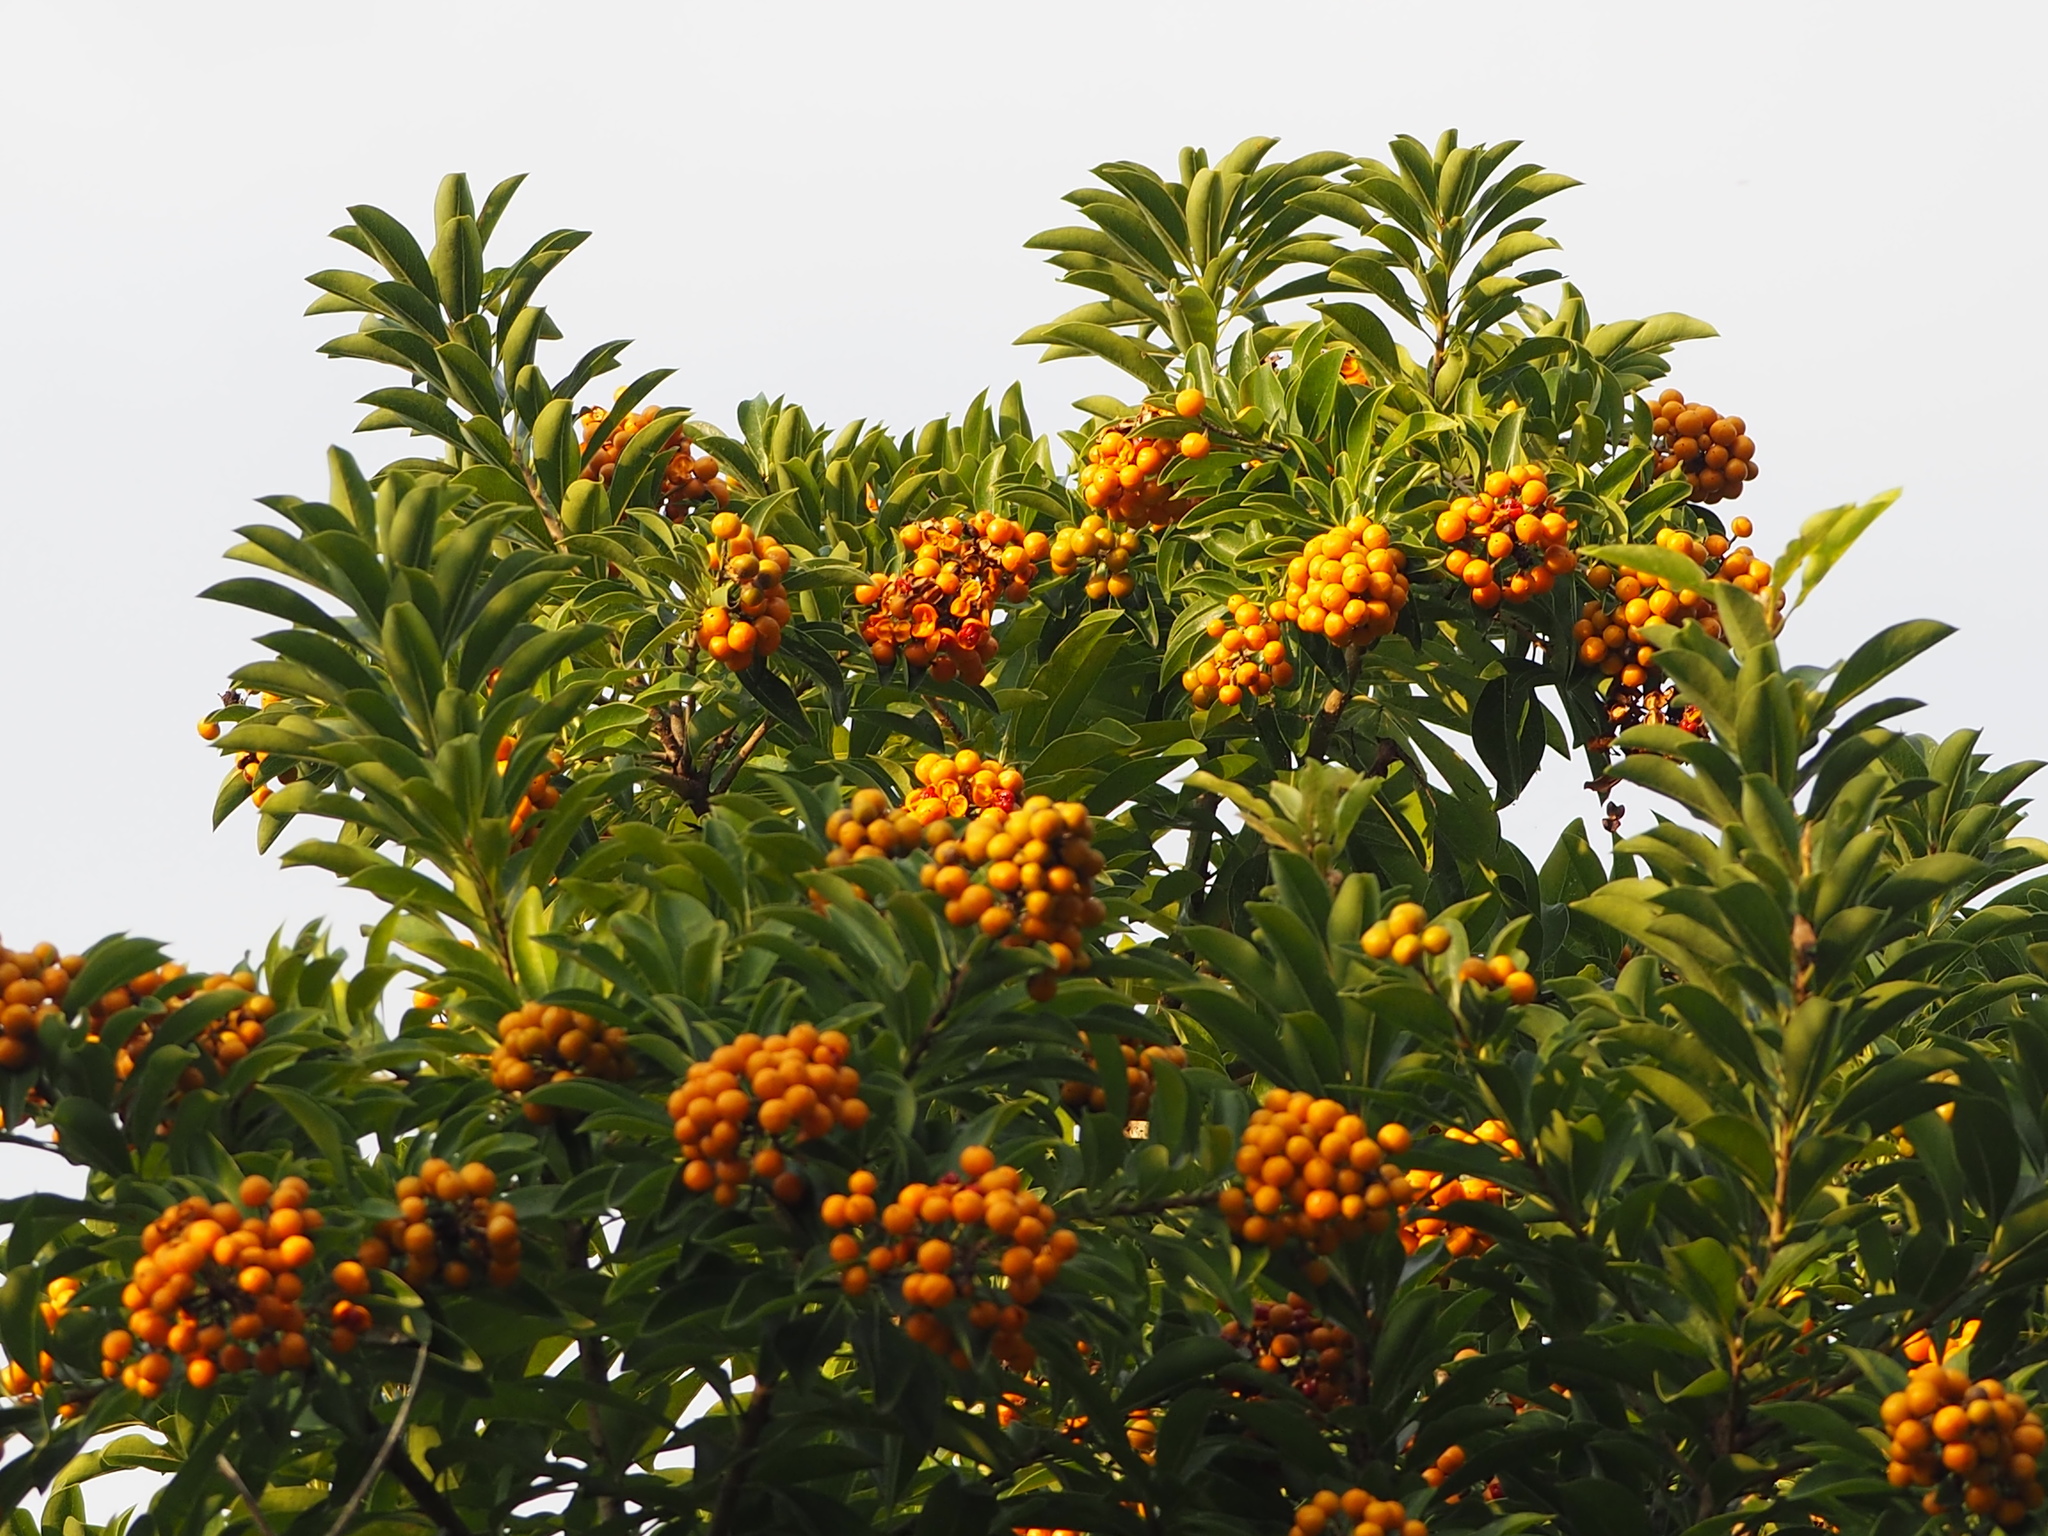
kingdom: Plantae
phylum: Tracheophyta
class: Magnoliopsida
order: Apiales
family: Pittosporaceae
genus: Pittosporum
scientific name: Pittosporum pentandrum
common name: Taiwanese cheesewood
